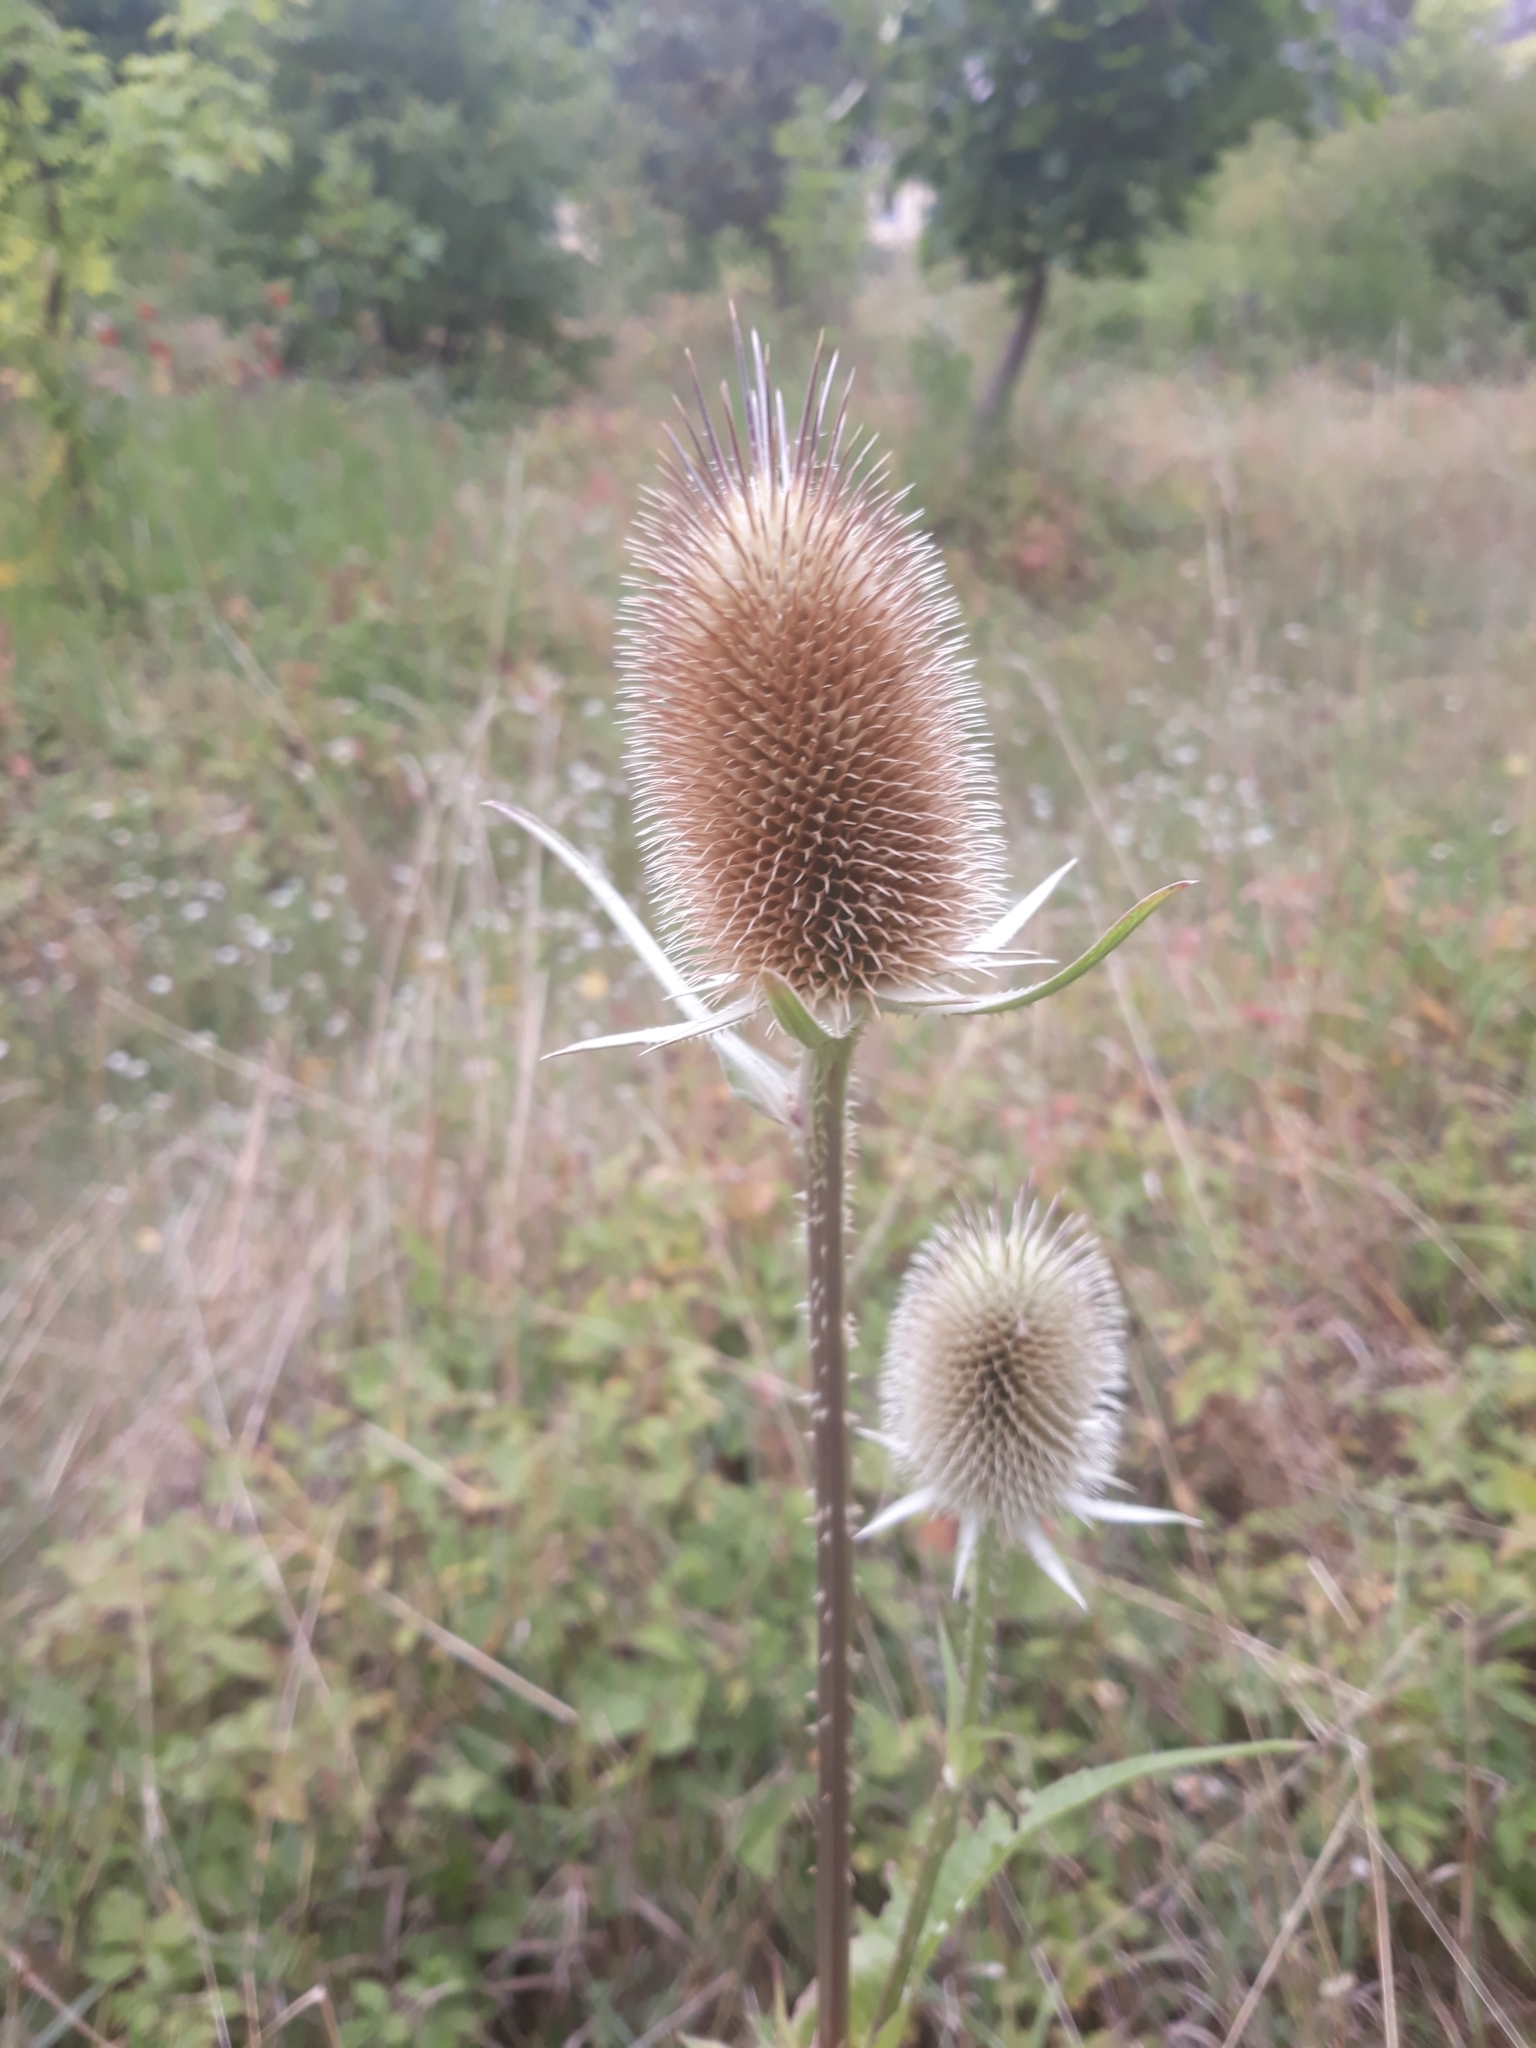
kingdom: Plantae
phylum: Tracheophyta
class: Magnoliopsida
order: Dipsacales
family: Caprifoliaceae
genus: Dipsacus
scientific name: Dipsacus laciniatus
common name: Cut-leaved teasel
